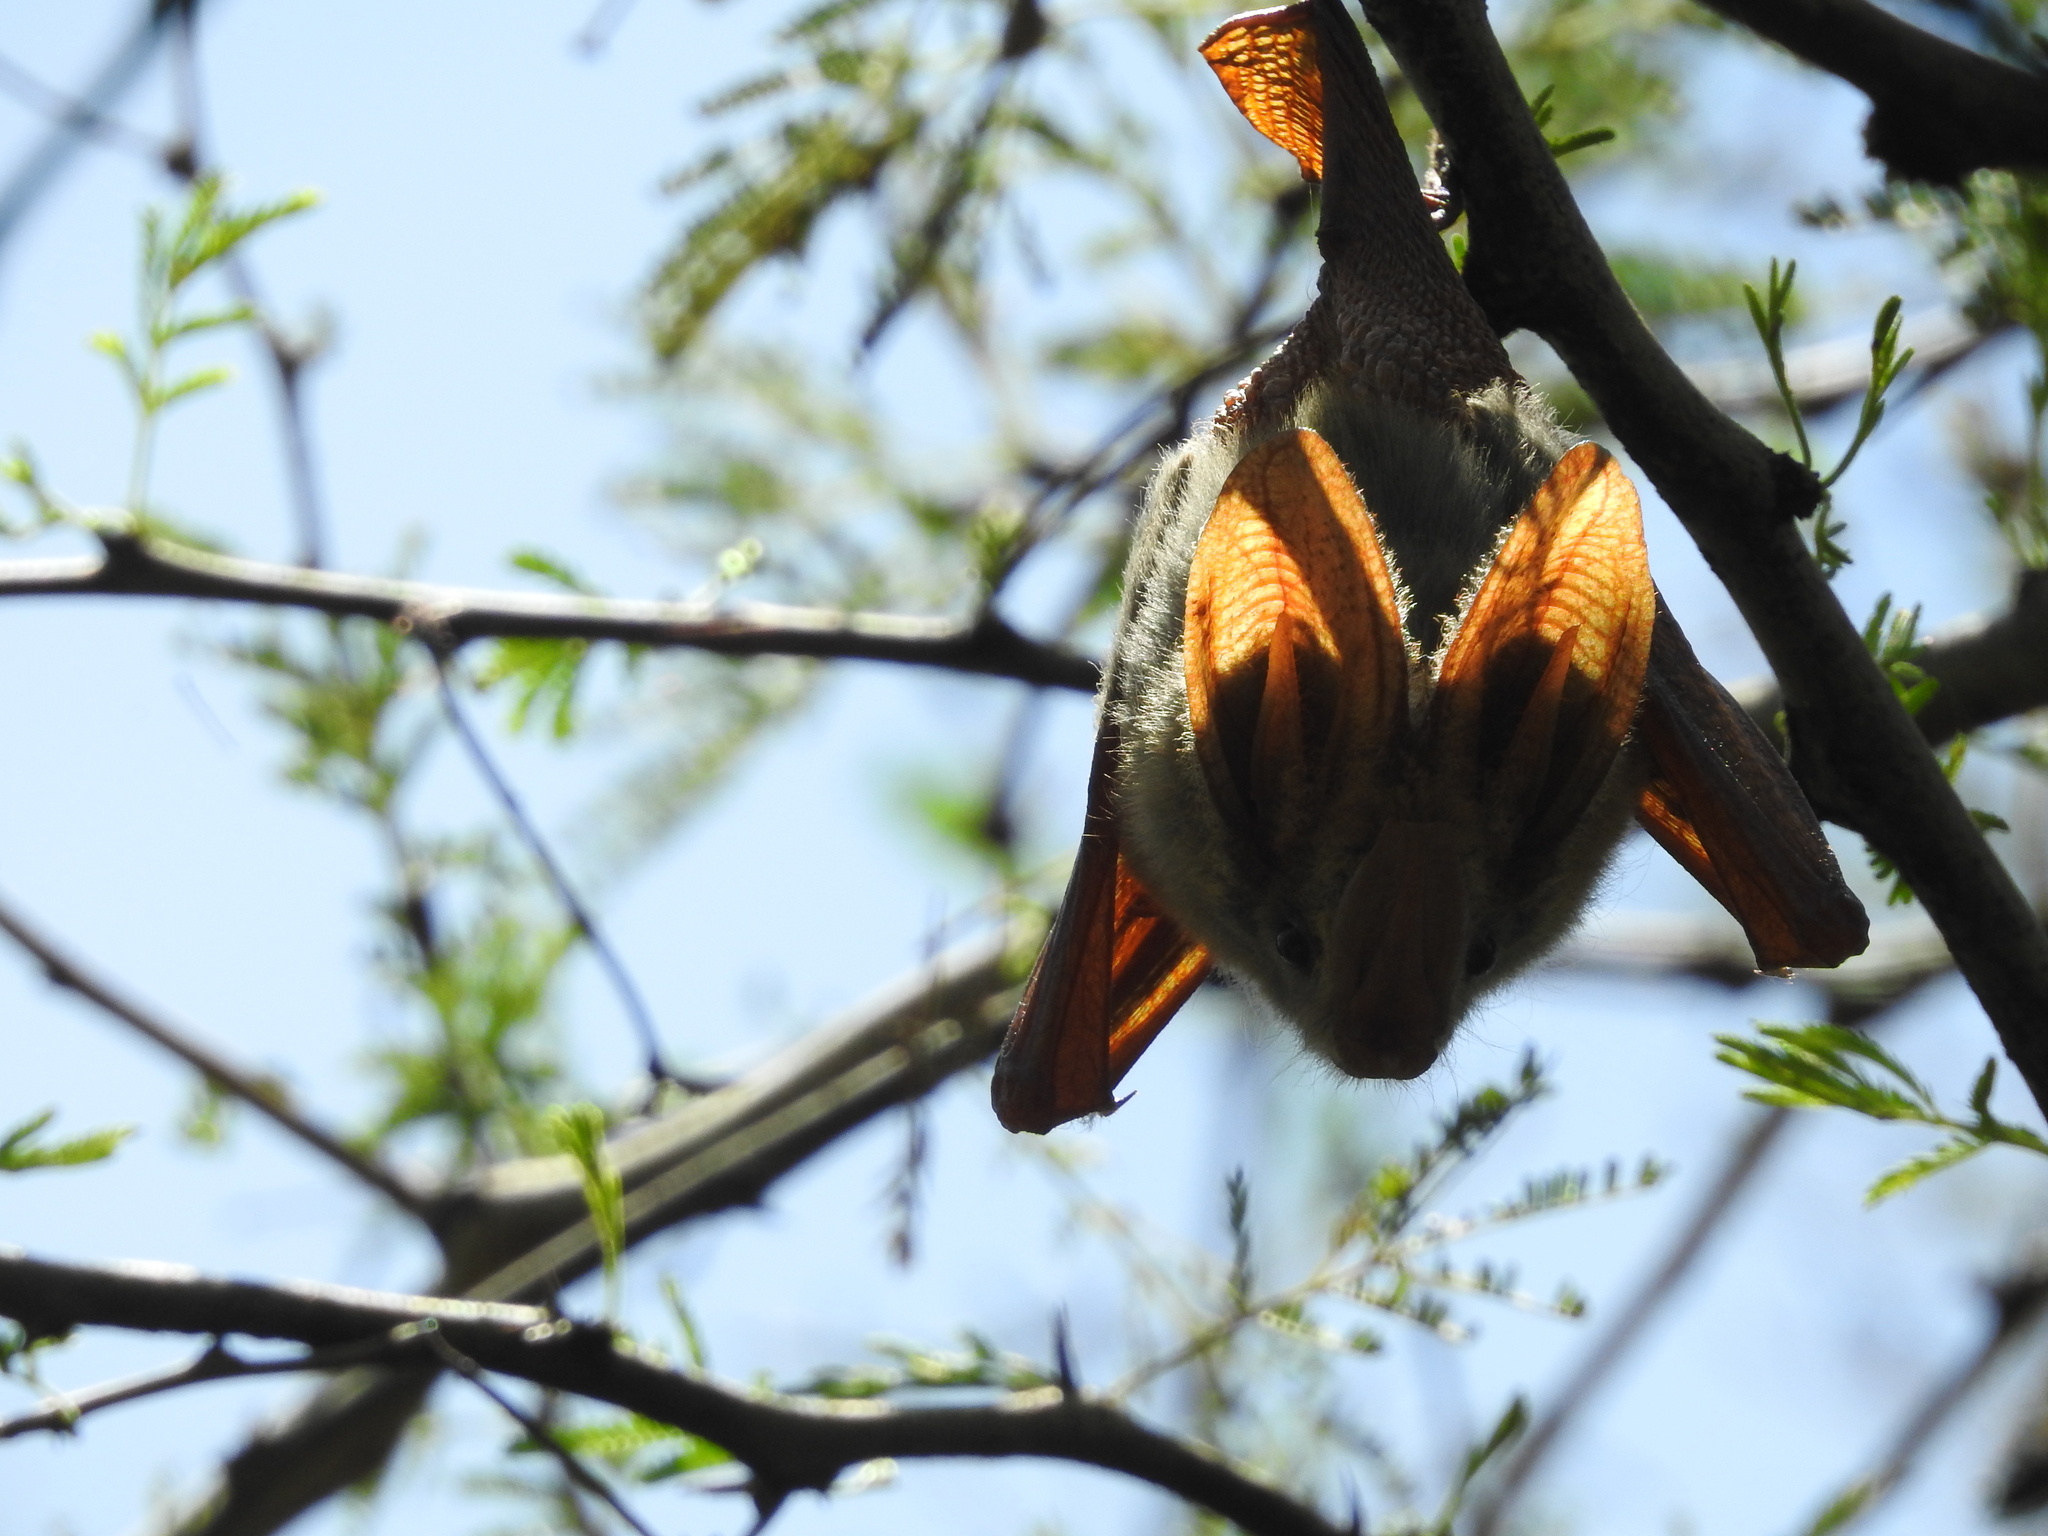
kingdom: Animalia
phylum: Chordata
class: Mammalia
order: Chiroptera
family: Megadermatidae
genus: Lavia
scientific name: Lavia frons
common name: Yellow-winged bat
